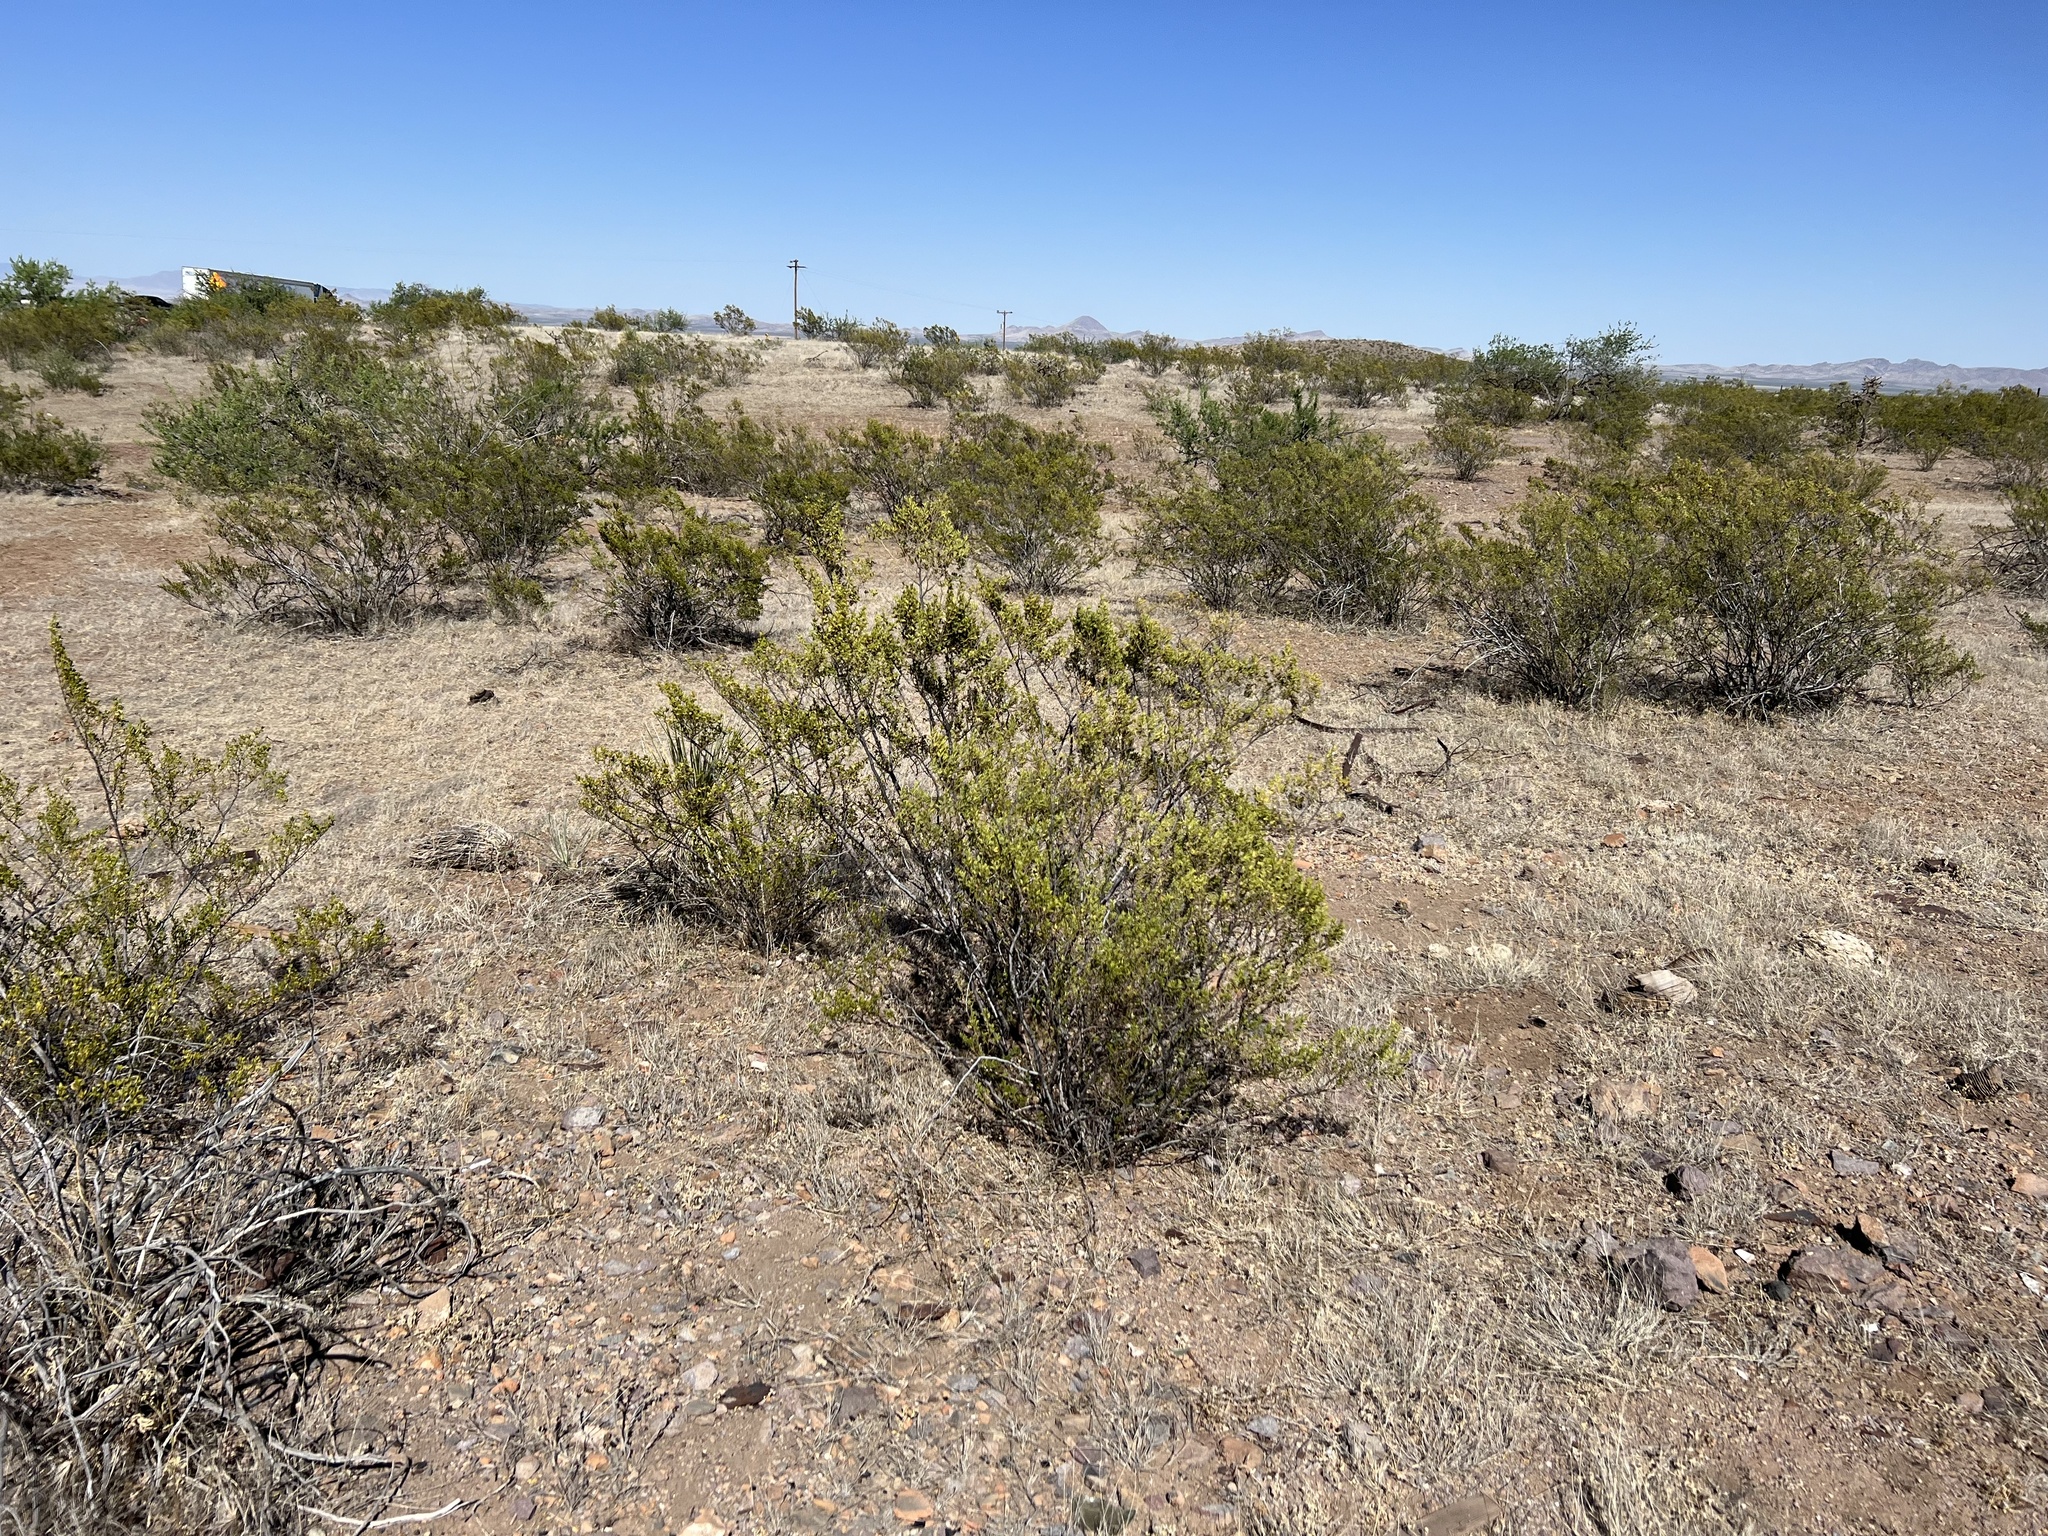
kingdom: Plantae
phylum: Tracheophyta
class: Magnoliopsida
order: Zygophyllales
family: Zygophyllaceae
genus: Larrea
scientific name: Larrea tridentata
